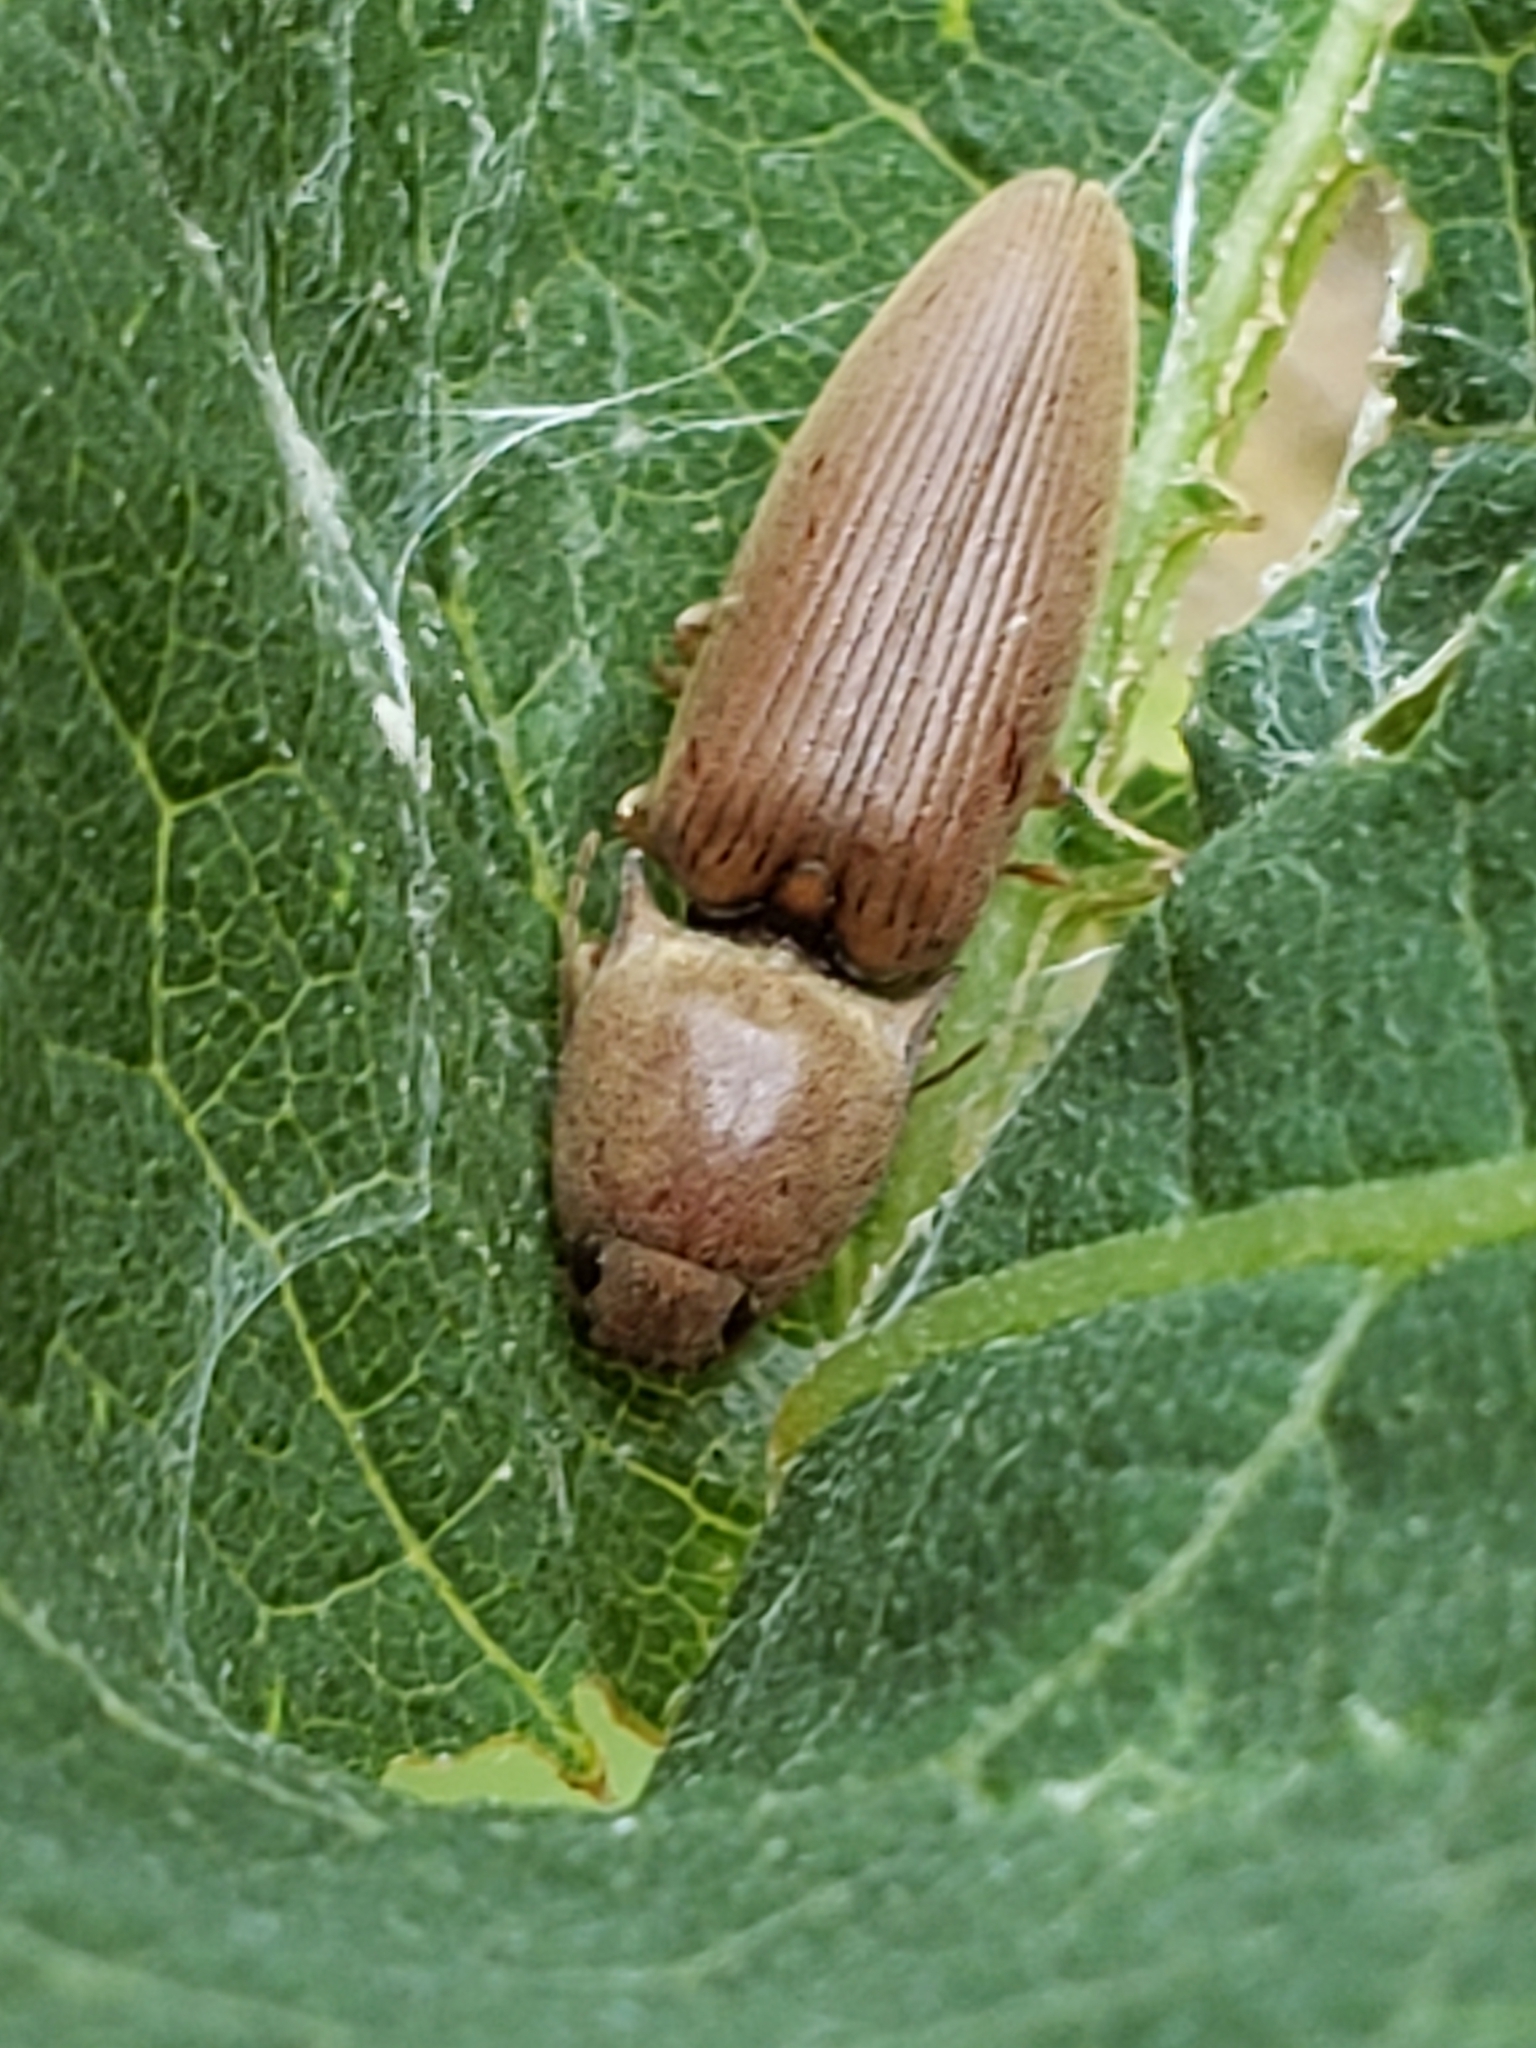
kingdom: Animalia
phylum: Arthropoda
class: Insecta
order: Coleoptera
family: Elateridae
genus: Monocrepidius
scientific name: Monocrepidius lividus
